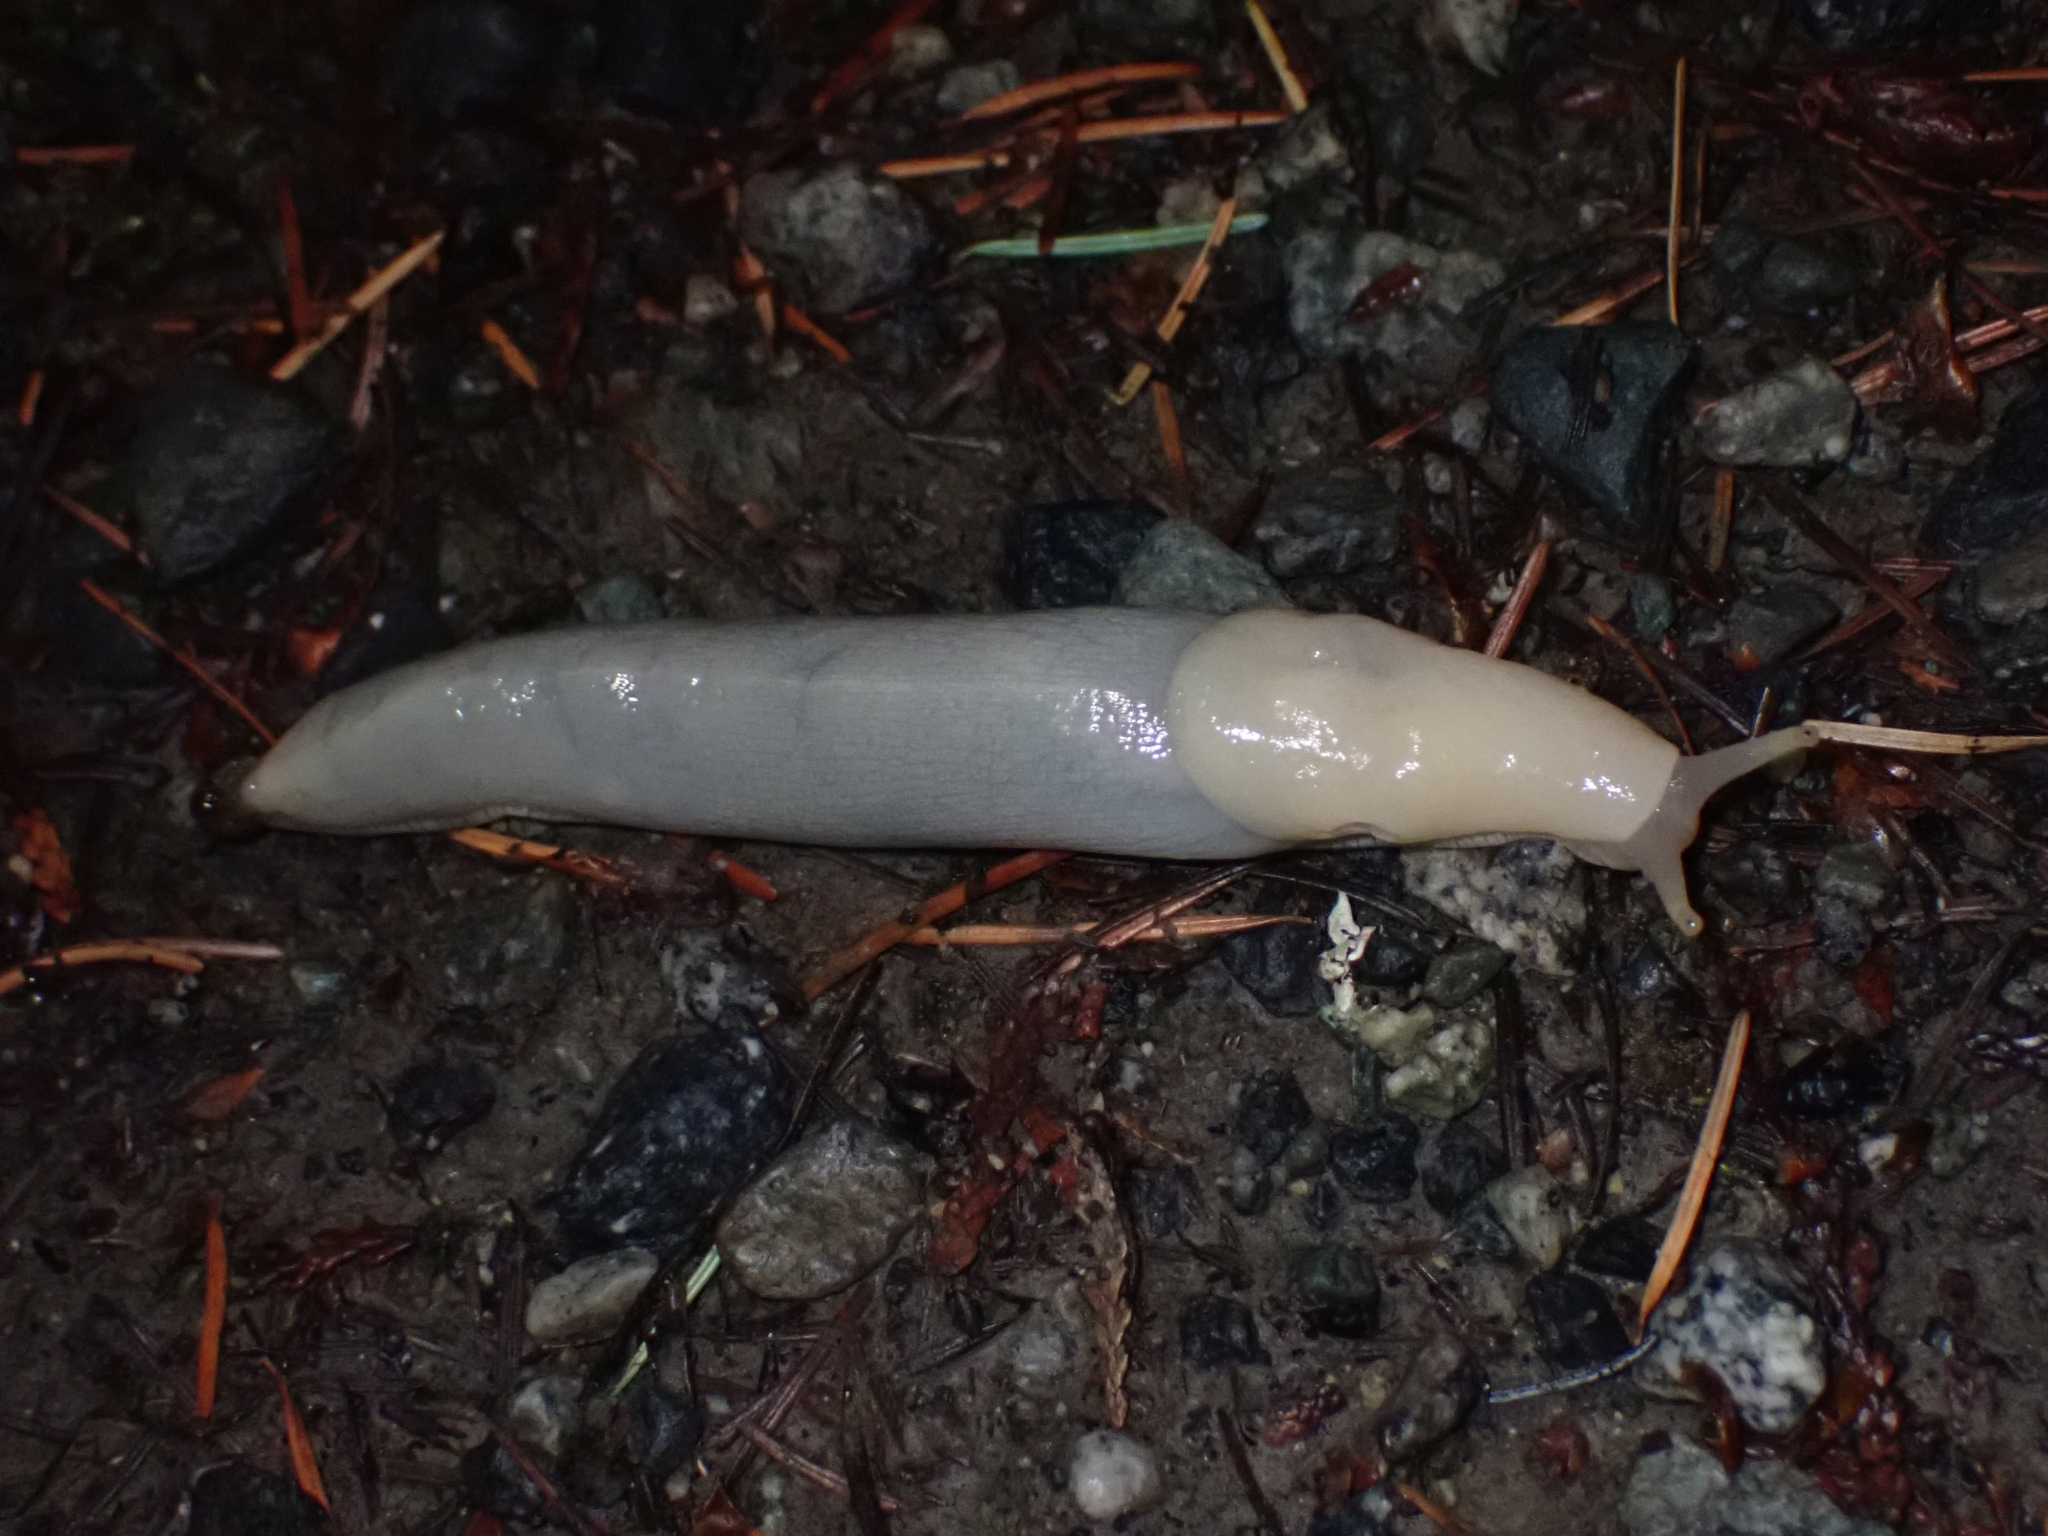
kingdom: Animalia
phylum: Mollusca
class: Gastropoda
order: Stylommatophora
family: Ariolimacidae
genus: Ariolimax
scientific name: Ariolimax columbianus
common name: Pacific banana slug
